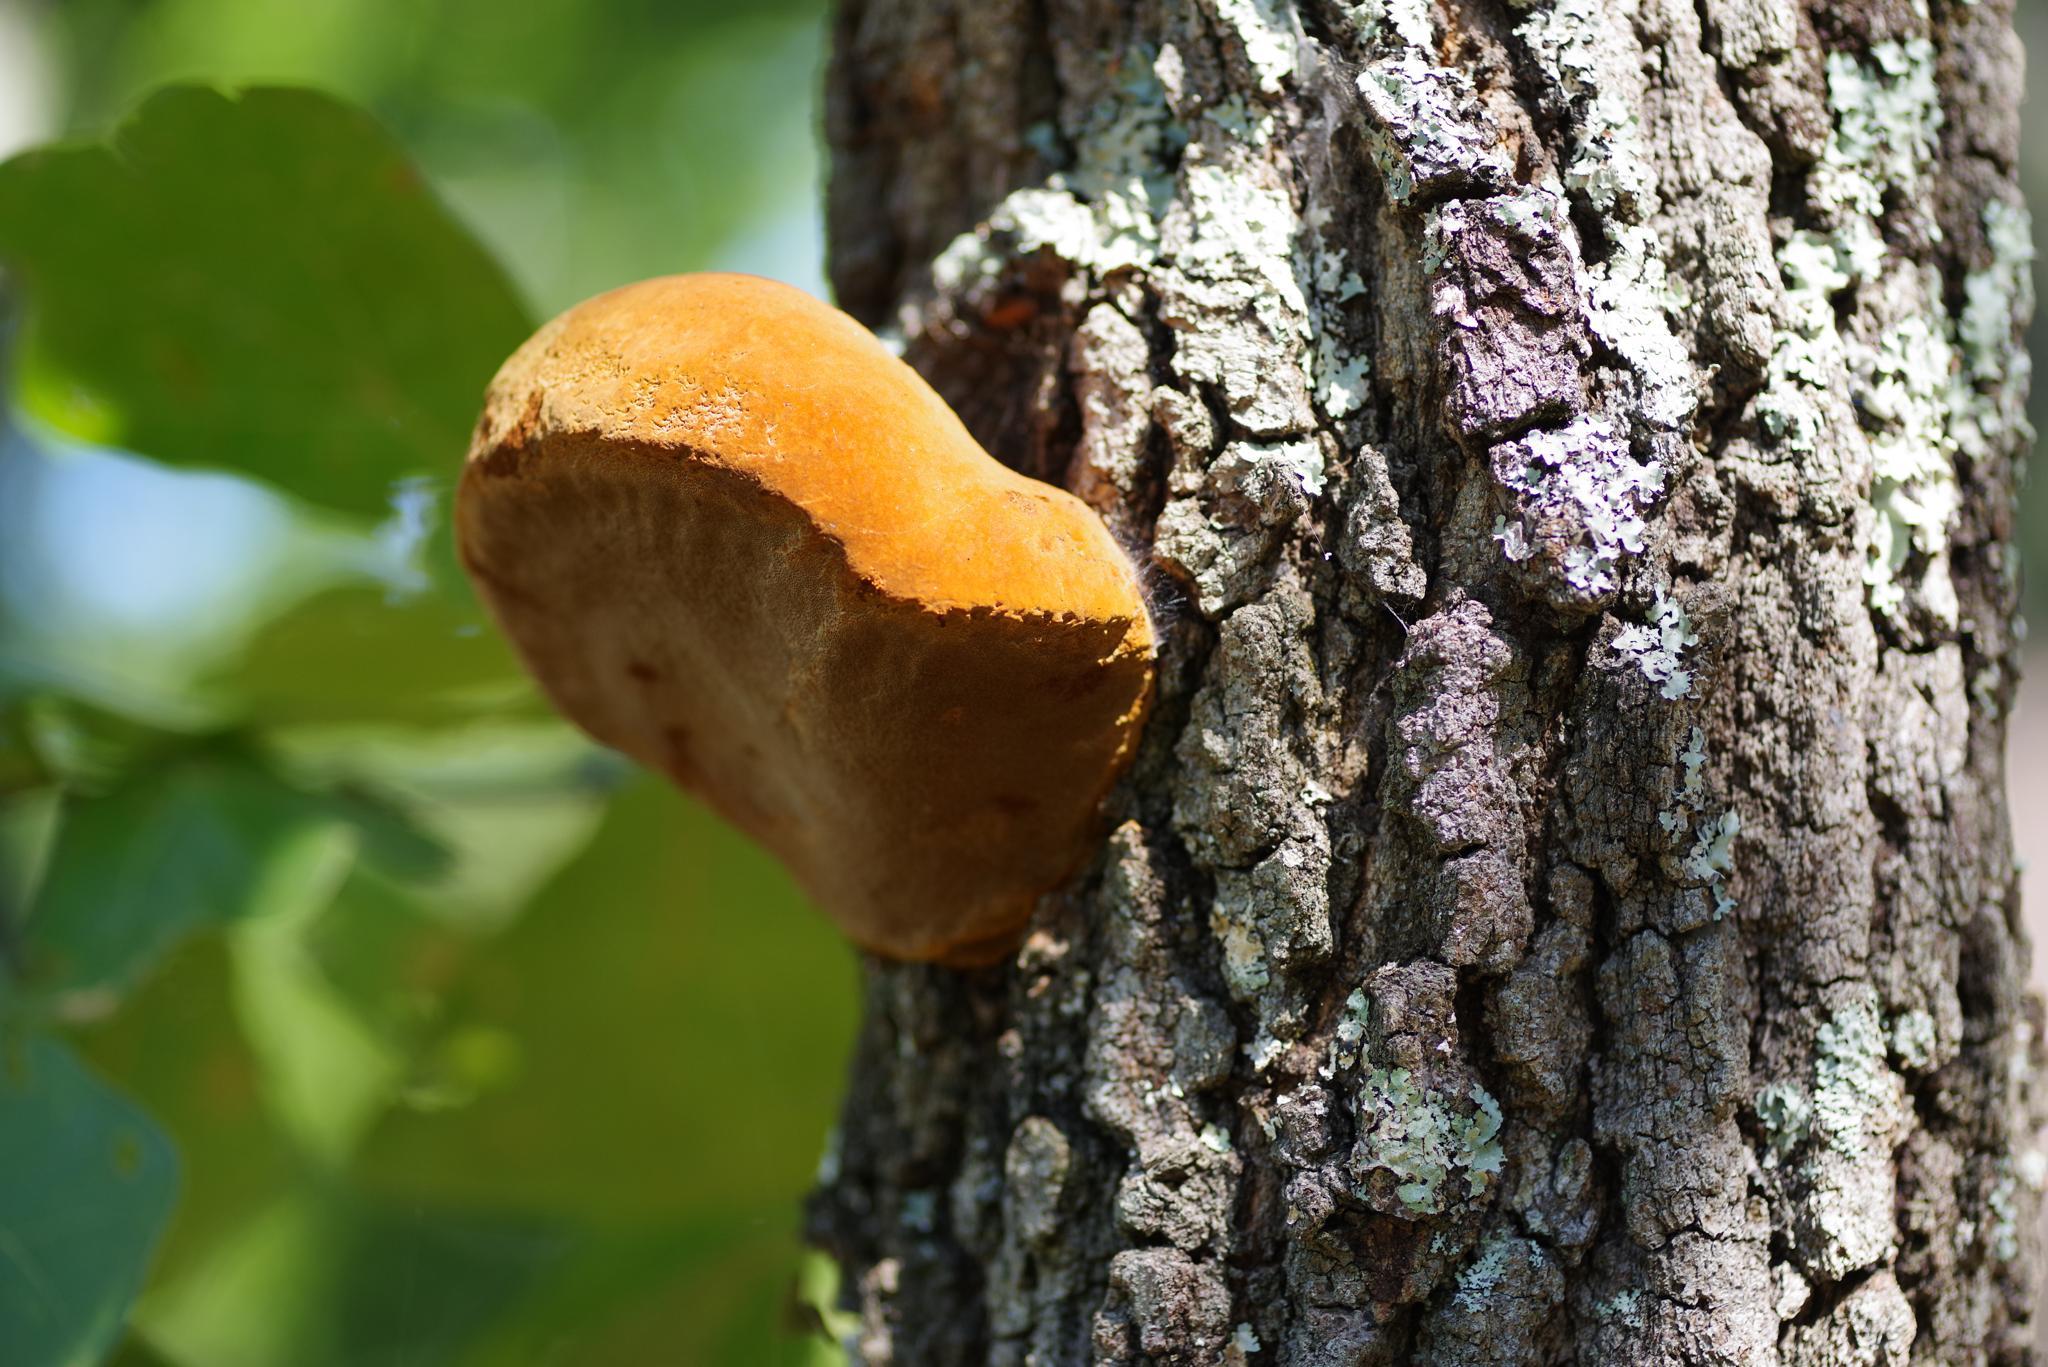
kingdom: Fungi
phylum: Basidiomycota
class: Agaricomycetes
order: Hymenochaetales
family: Hymenochaetaceae
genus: Inonotus
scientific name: Inonotus hispidus
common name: Shaggy bracket
